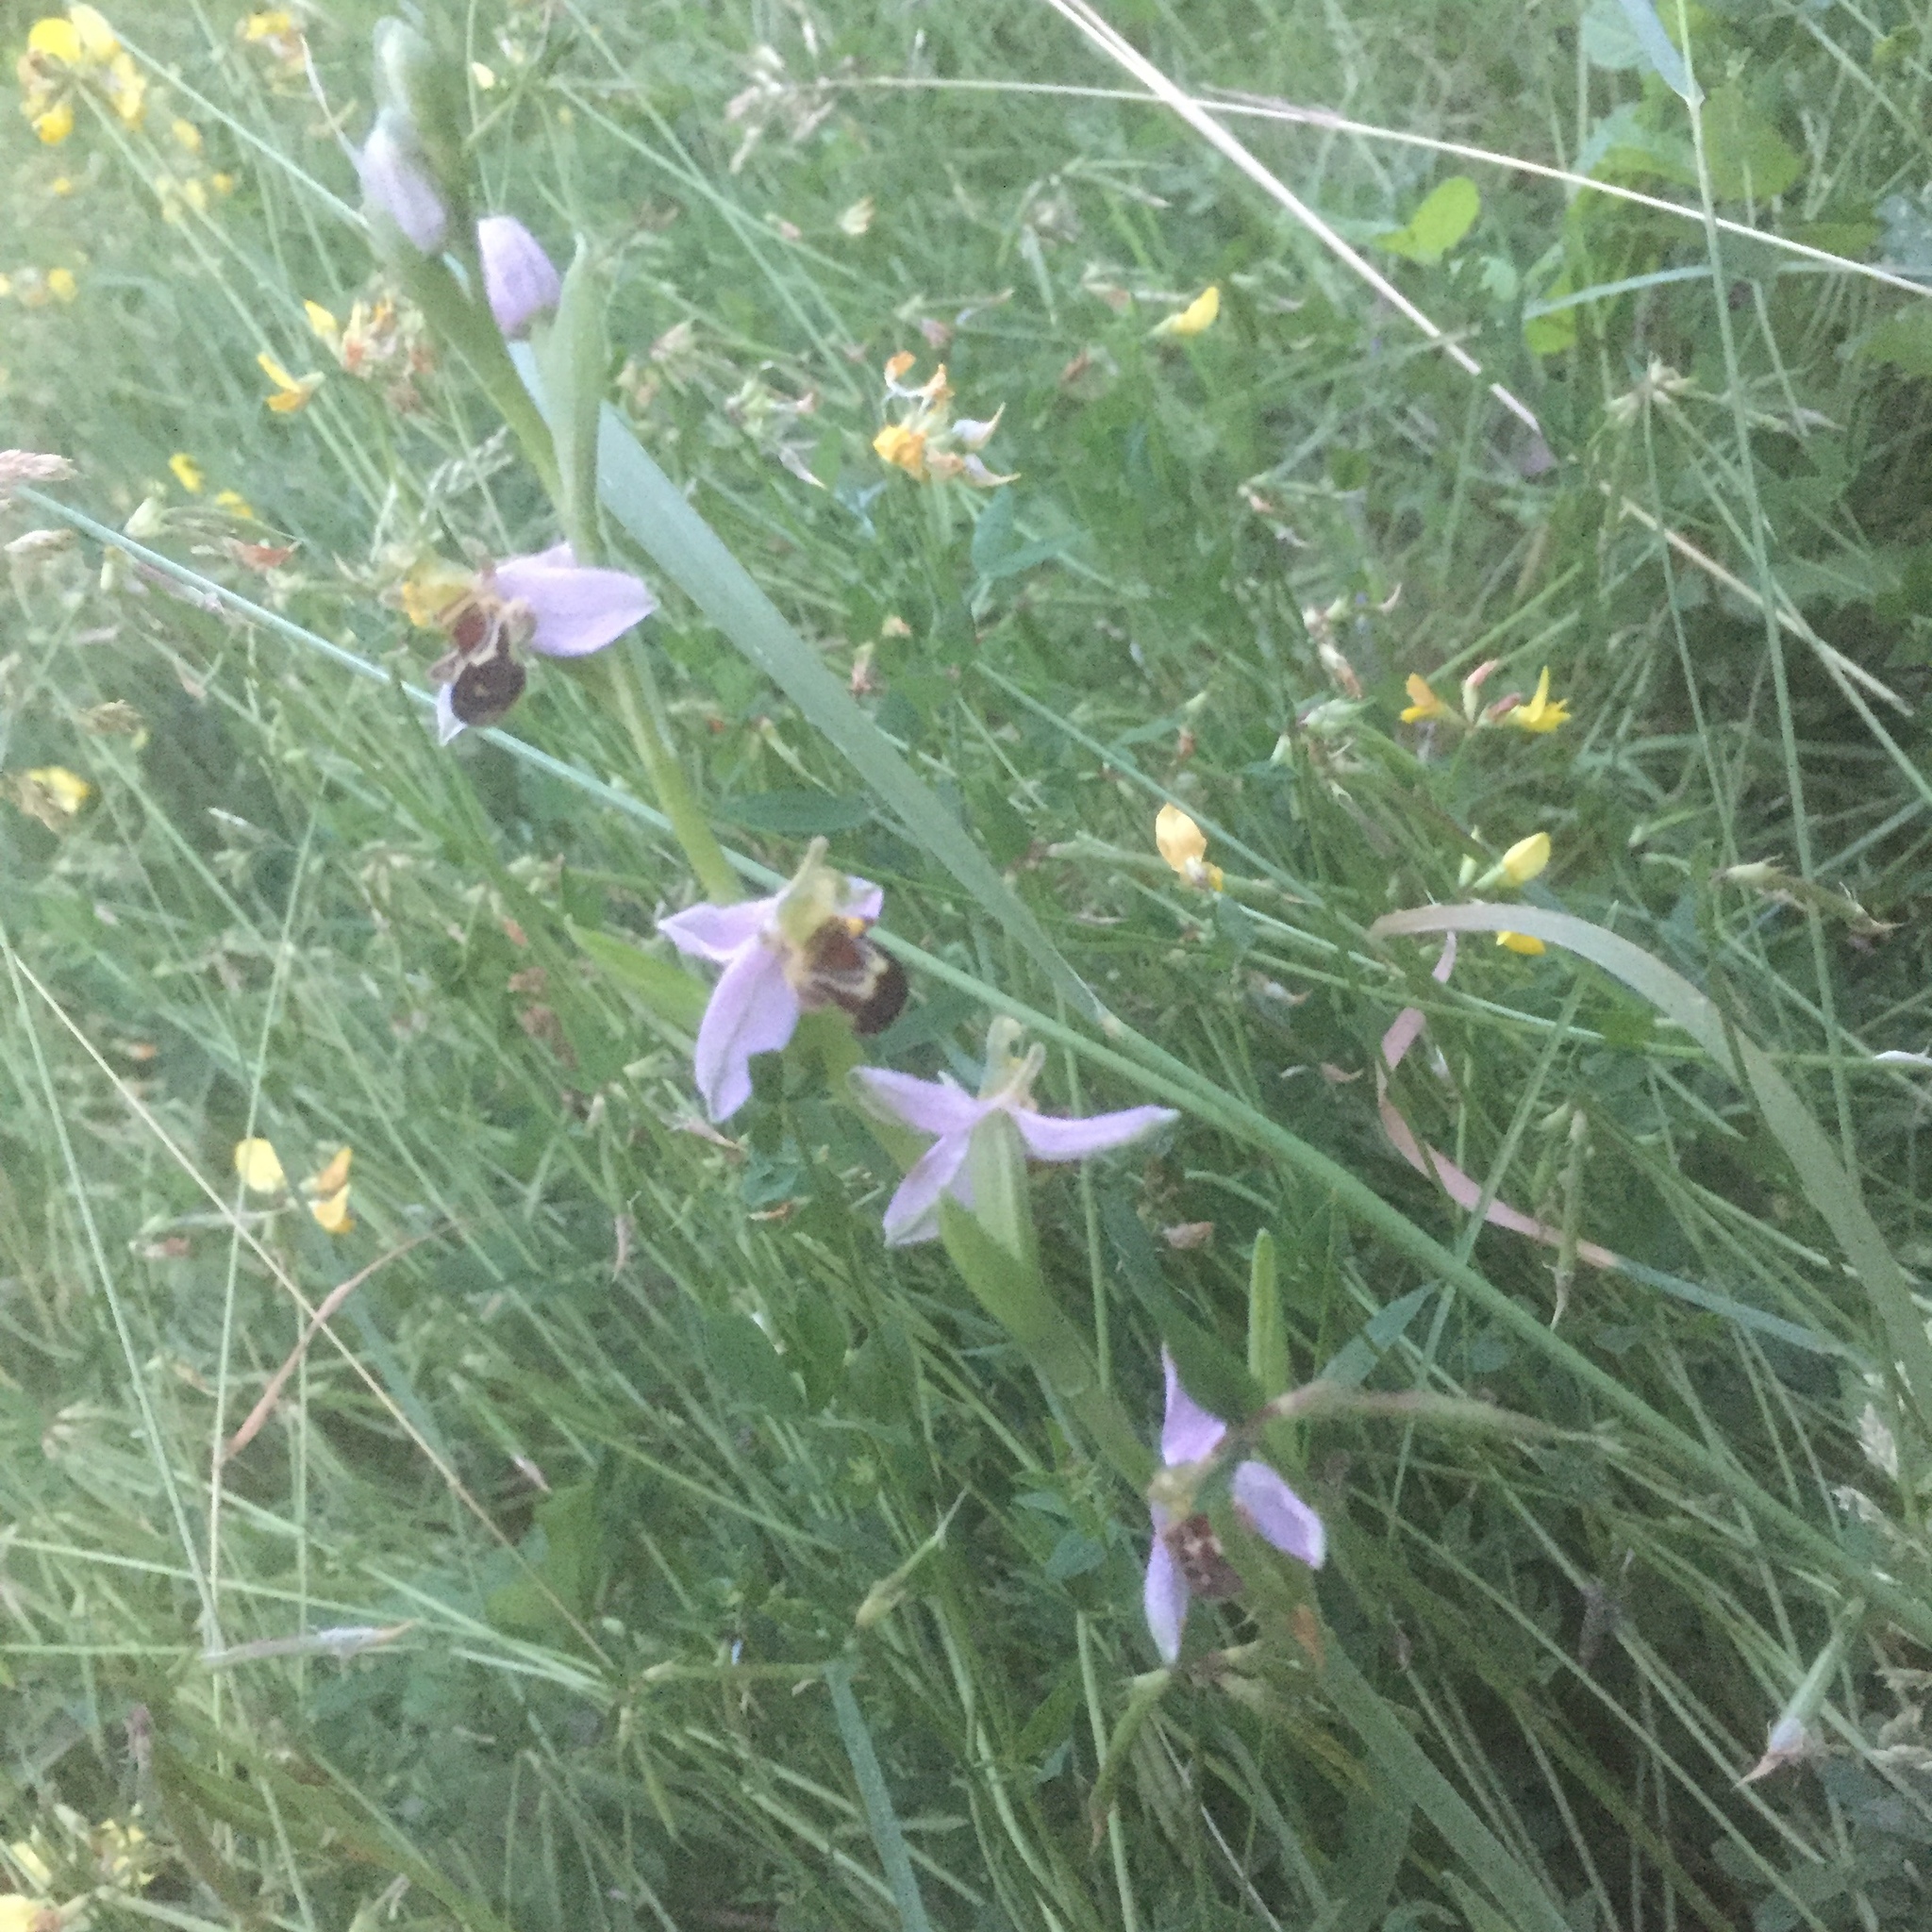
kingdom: Plantae
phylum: Tracheophyta
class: Liliopsida
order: Asparagales
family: Orchidaceae
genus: Ophrys
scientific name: Ophrys apifera
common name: Bee orchid
